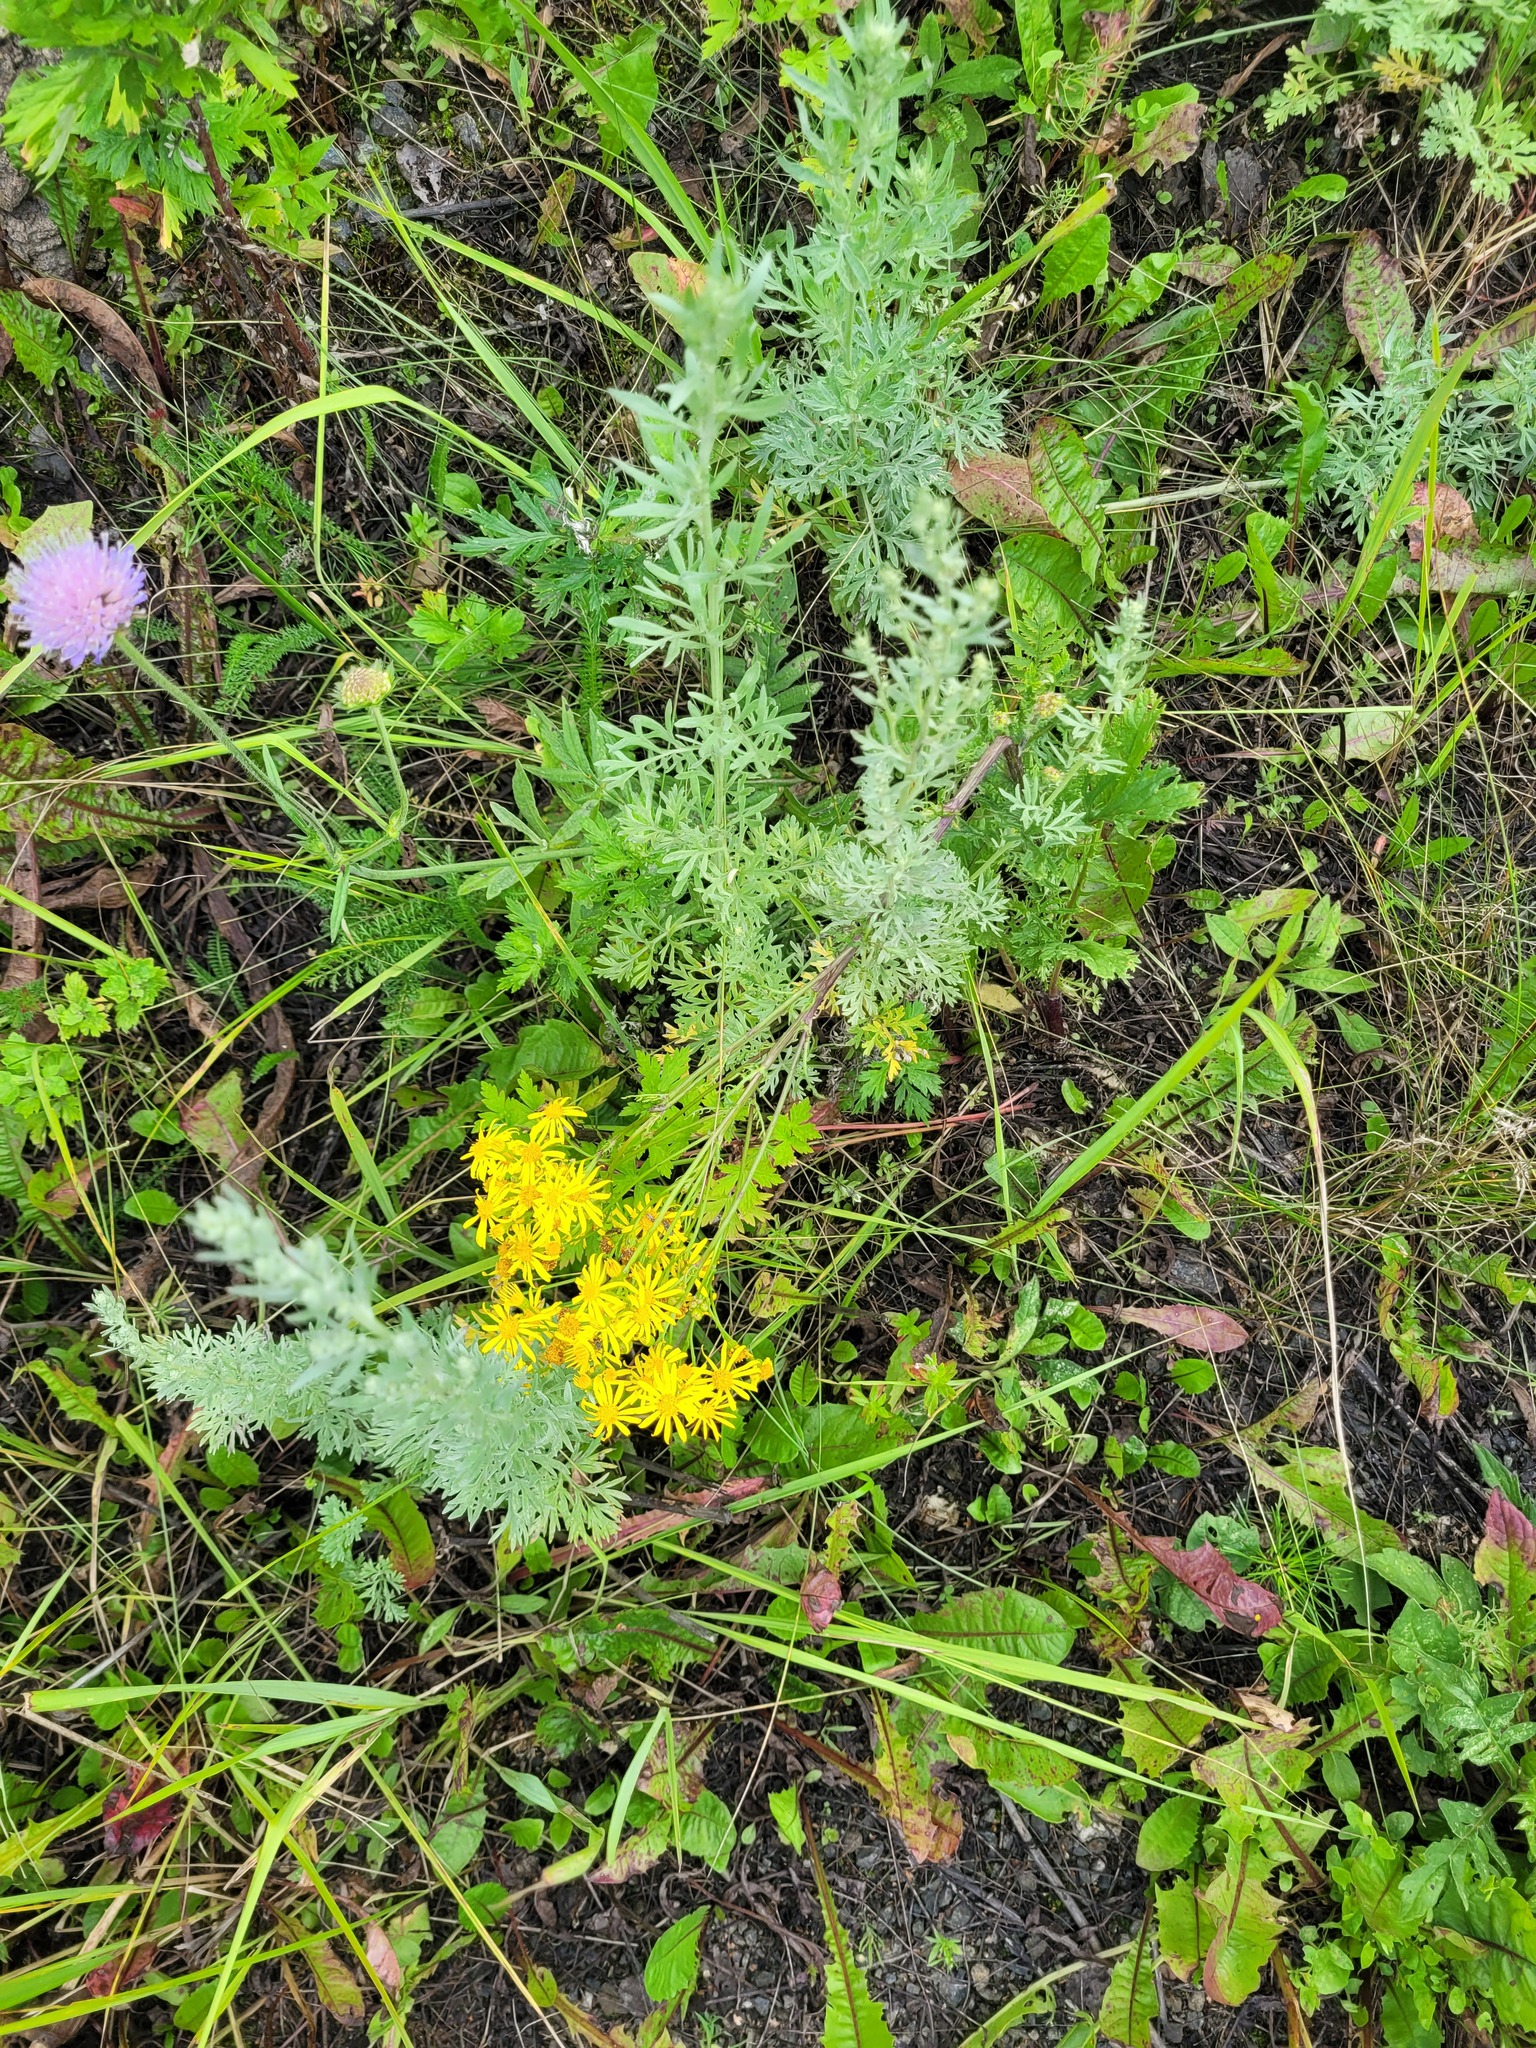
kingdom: Plantae
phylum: Tracheophyta
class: Magnoliopsida
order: Asterales
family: Asteraceae
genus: Jacobaea
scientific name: Jacobaea vulgaris
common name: Stinking willie
